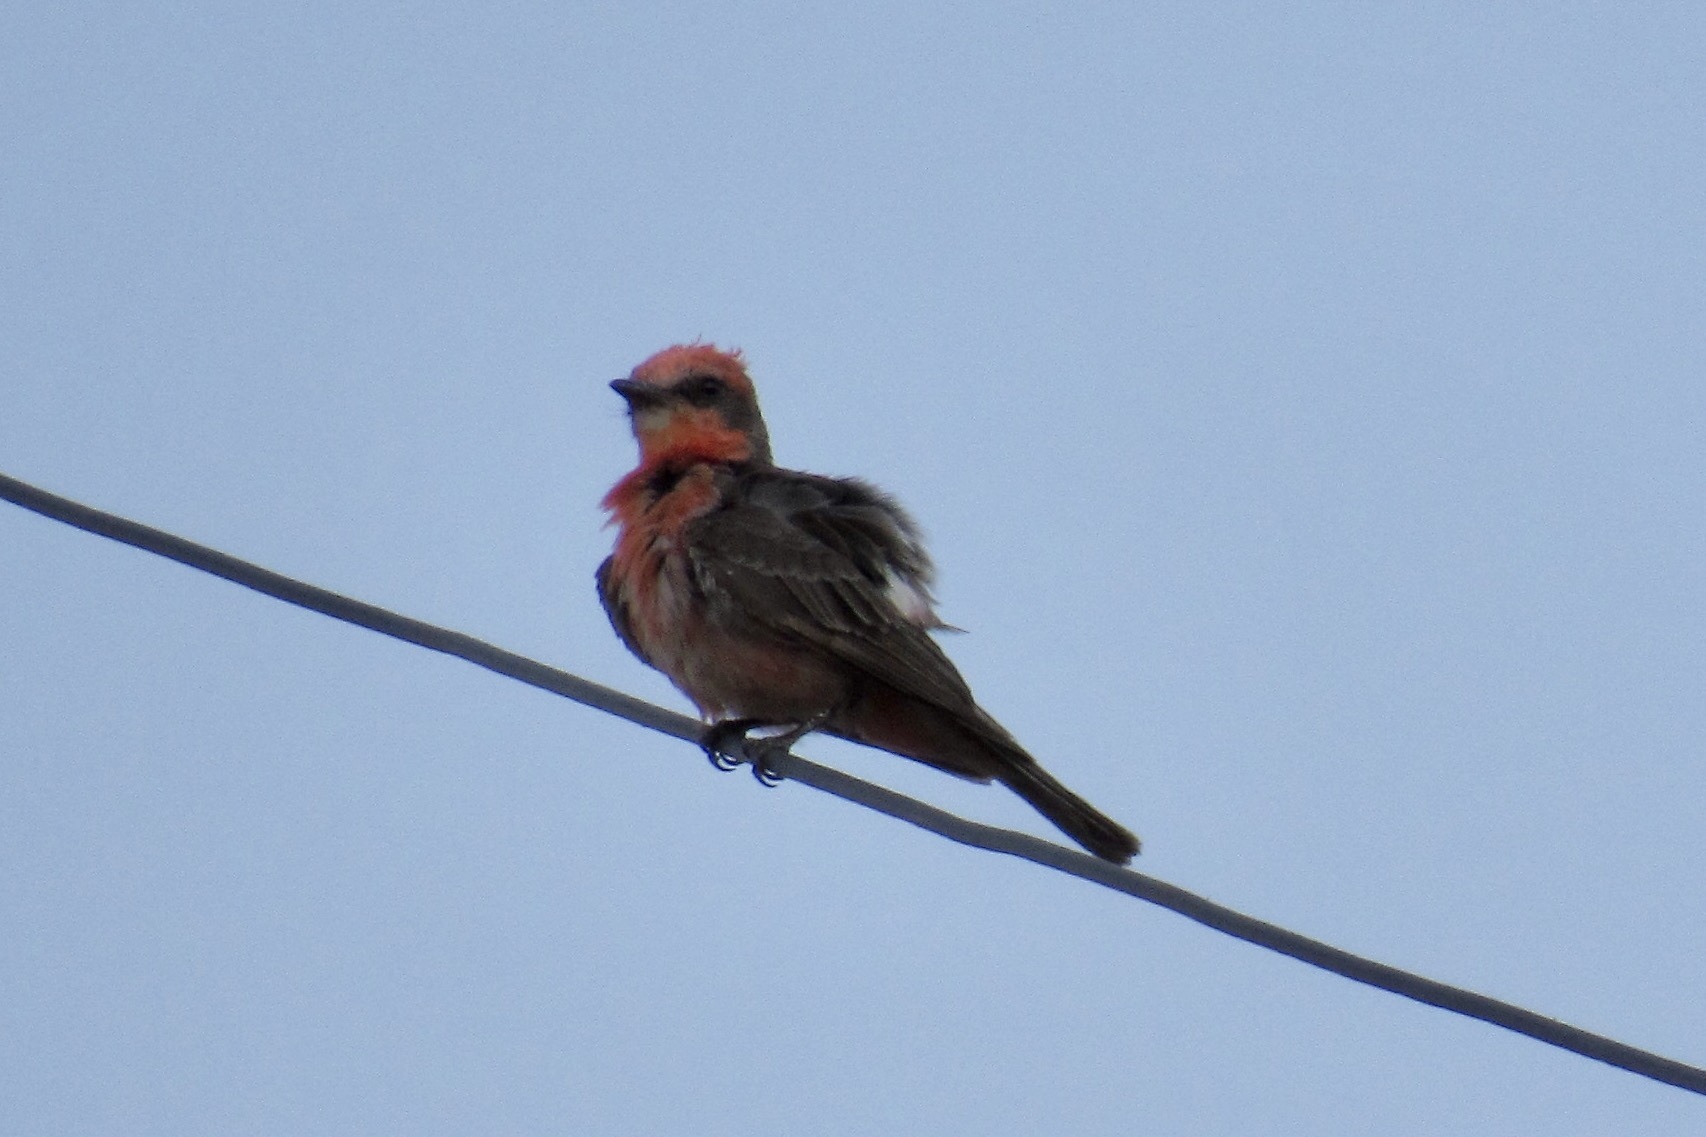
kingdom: Animalia
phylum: Chordata
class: Aves
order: Passeriformes
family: Tyrannidae
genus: Pyrocephalus
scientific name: Pyrocephalus rubinus
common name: Vermilion flycatcher
